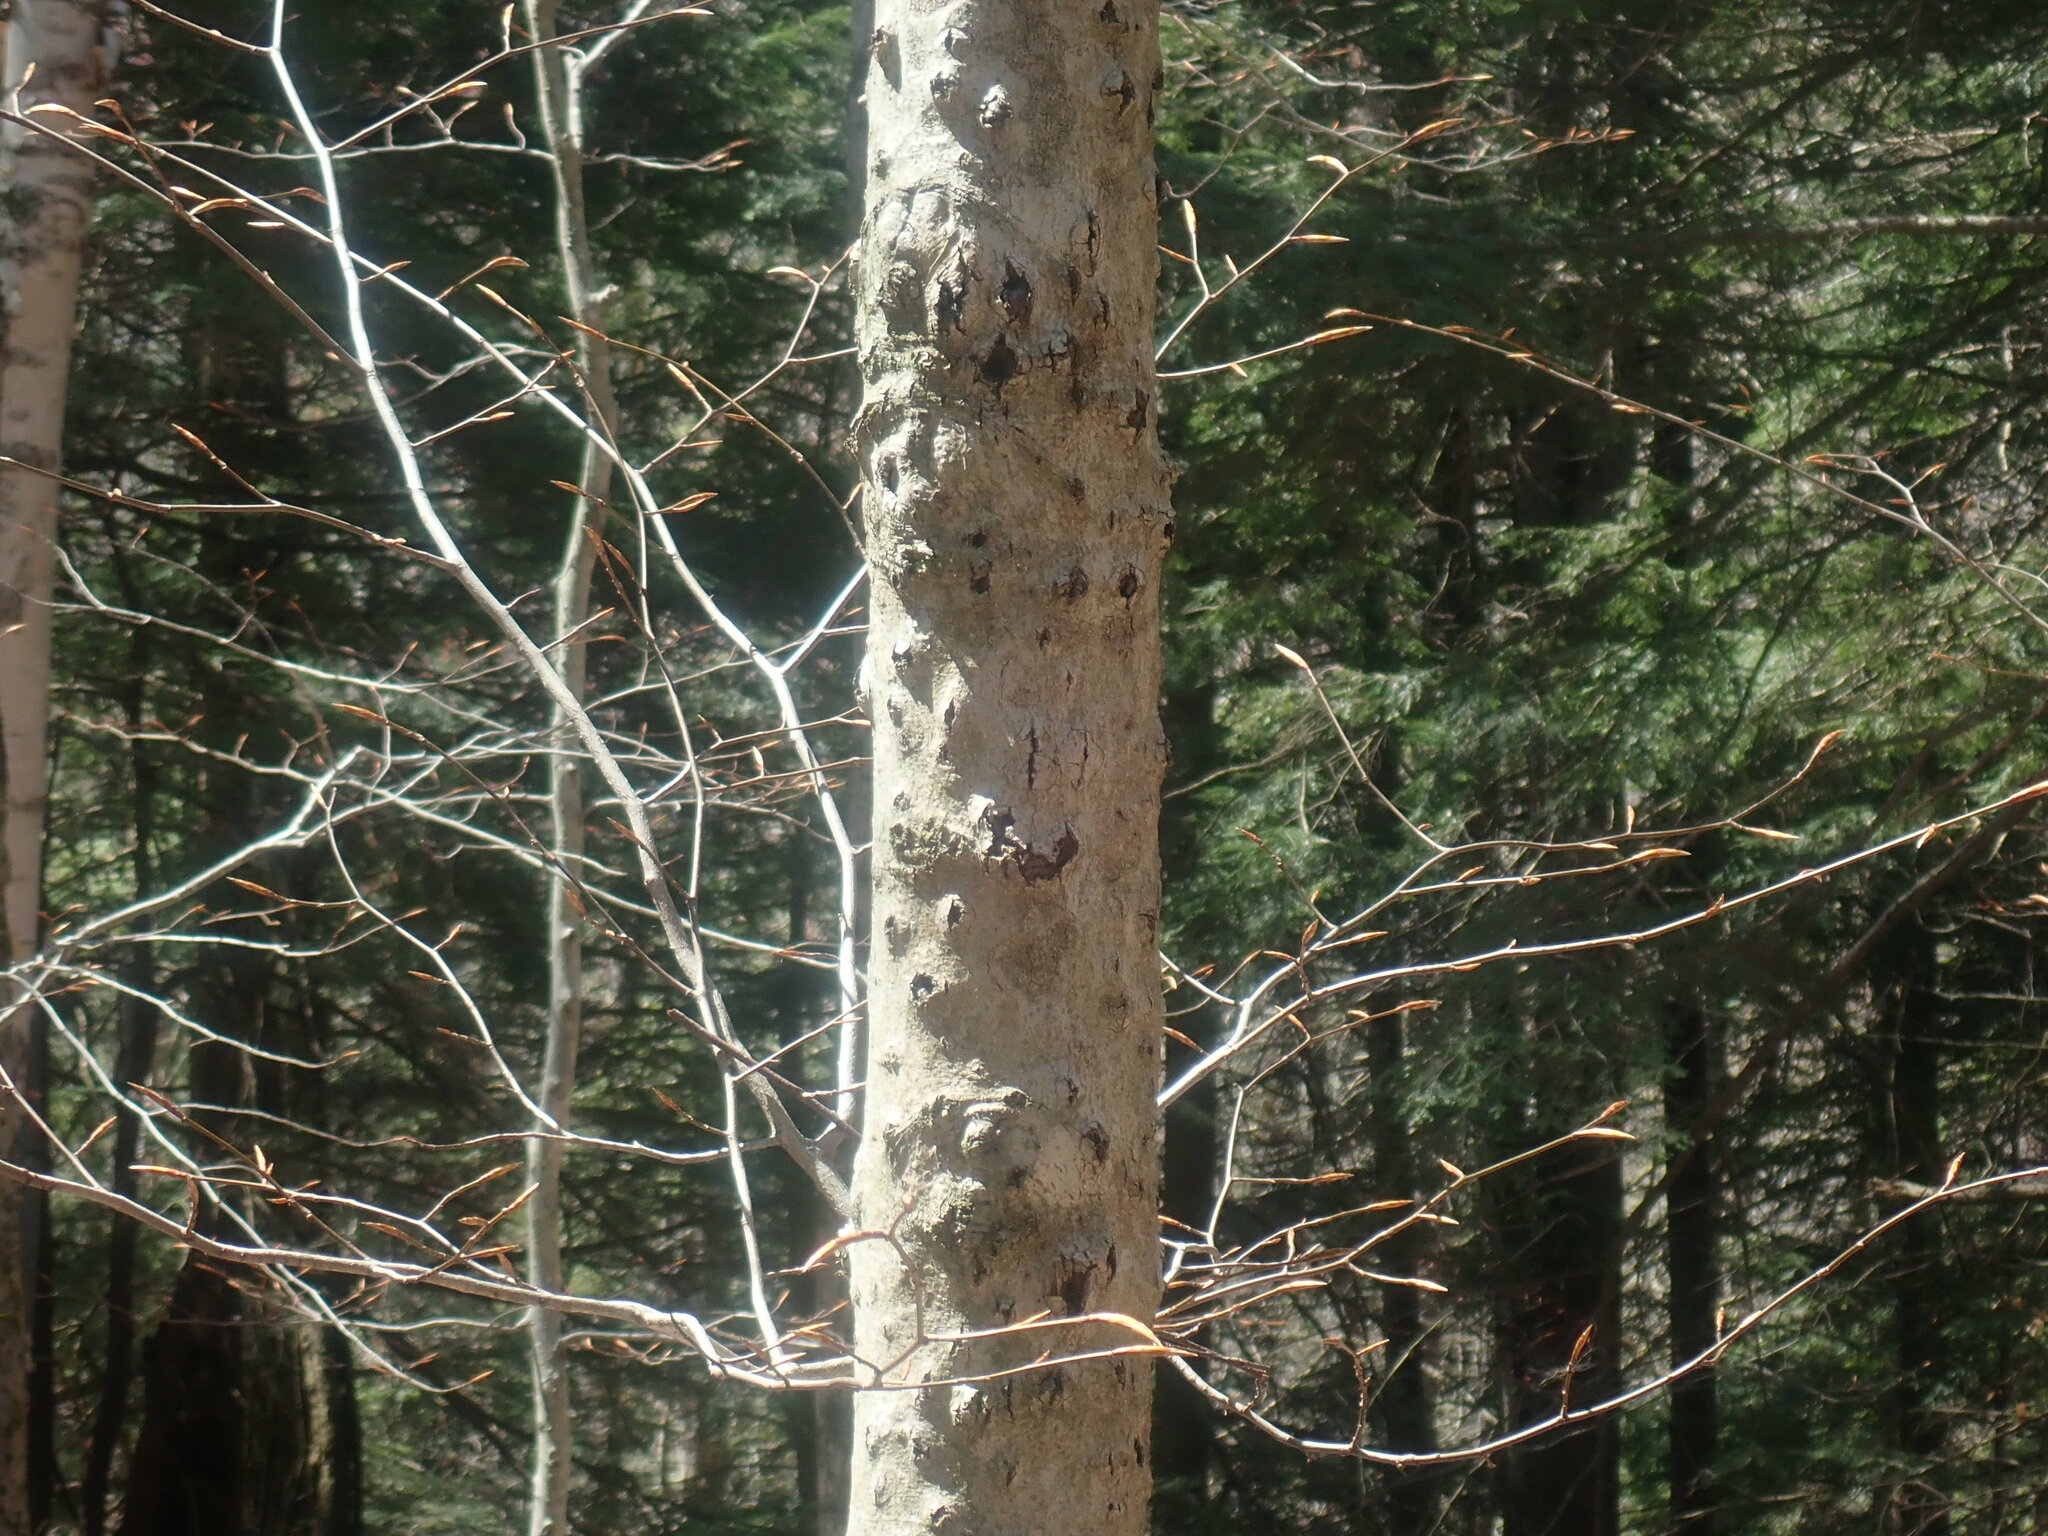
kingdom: Fungi
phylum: Ascomycota
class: Sordariomycetes
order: Hypocreales
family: Nectriaceae
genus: Neonectria
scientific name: Neonectria faginata
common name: Beech bark canker
